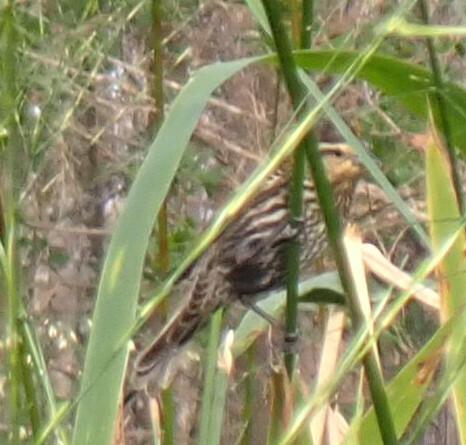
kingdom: Animalia
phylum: Chordata
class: Aves
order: Passeriformes
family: Icteridae
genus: Agelaius
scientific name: Agelaius phoeniceus
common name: Red-winged blackbird
